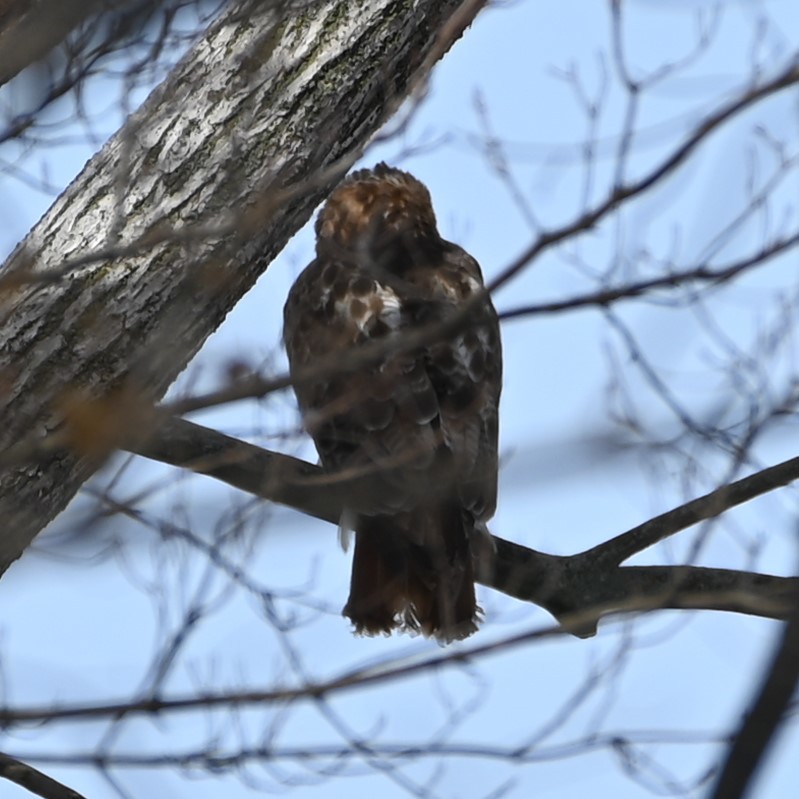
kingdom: Animalia
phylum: Chordata
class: Aves
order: Accipitriformes
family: Accipitridae
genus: Buteo
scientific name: Buteo jamaicensis
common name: Red-tailed hawk
